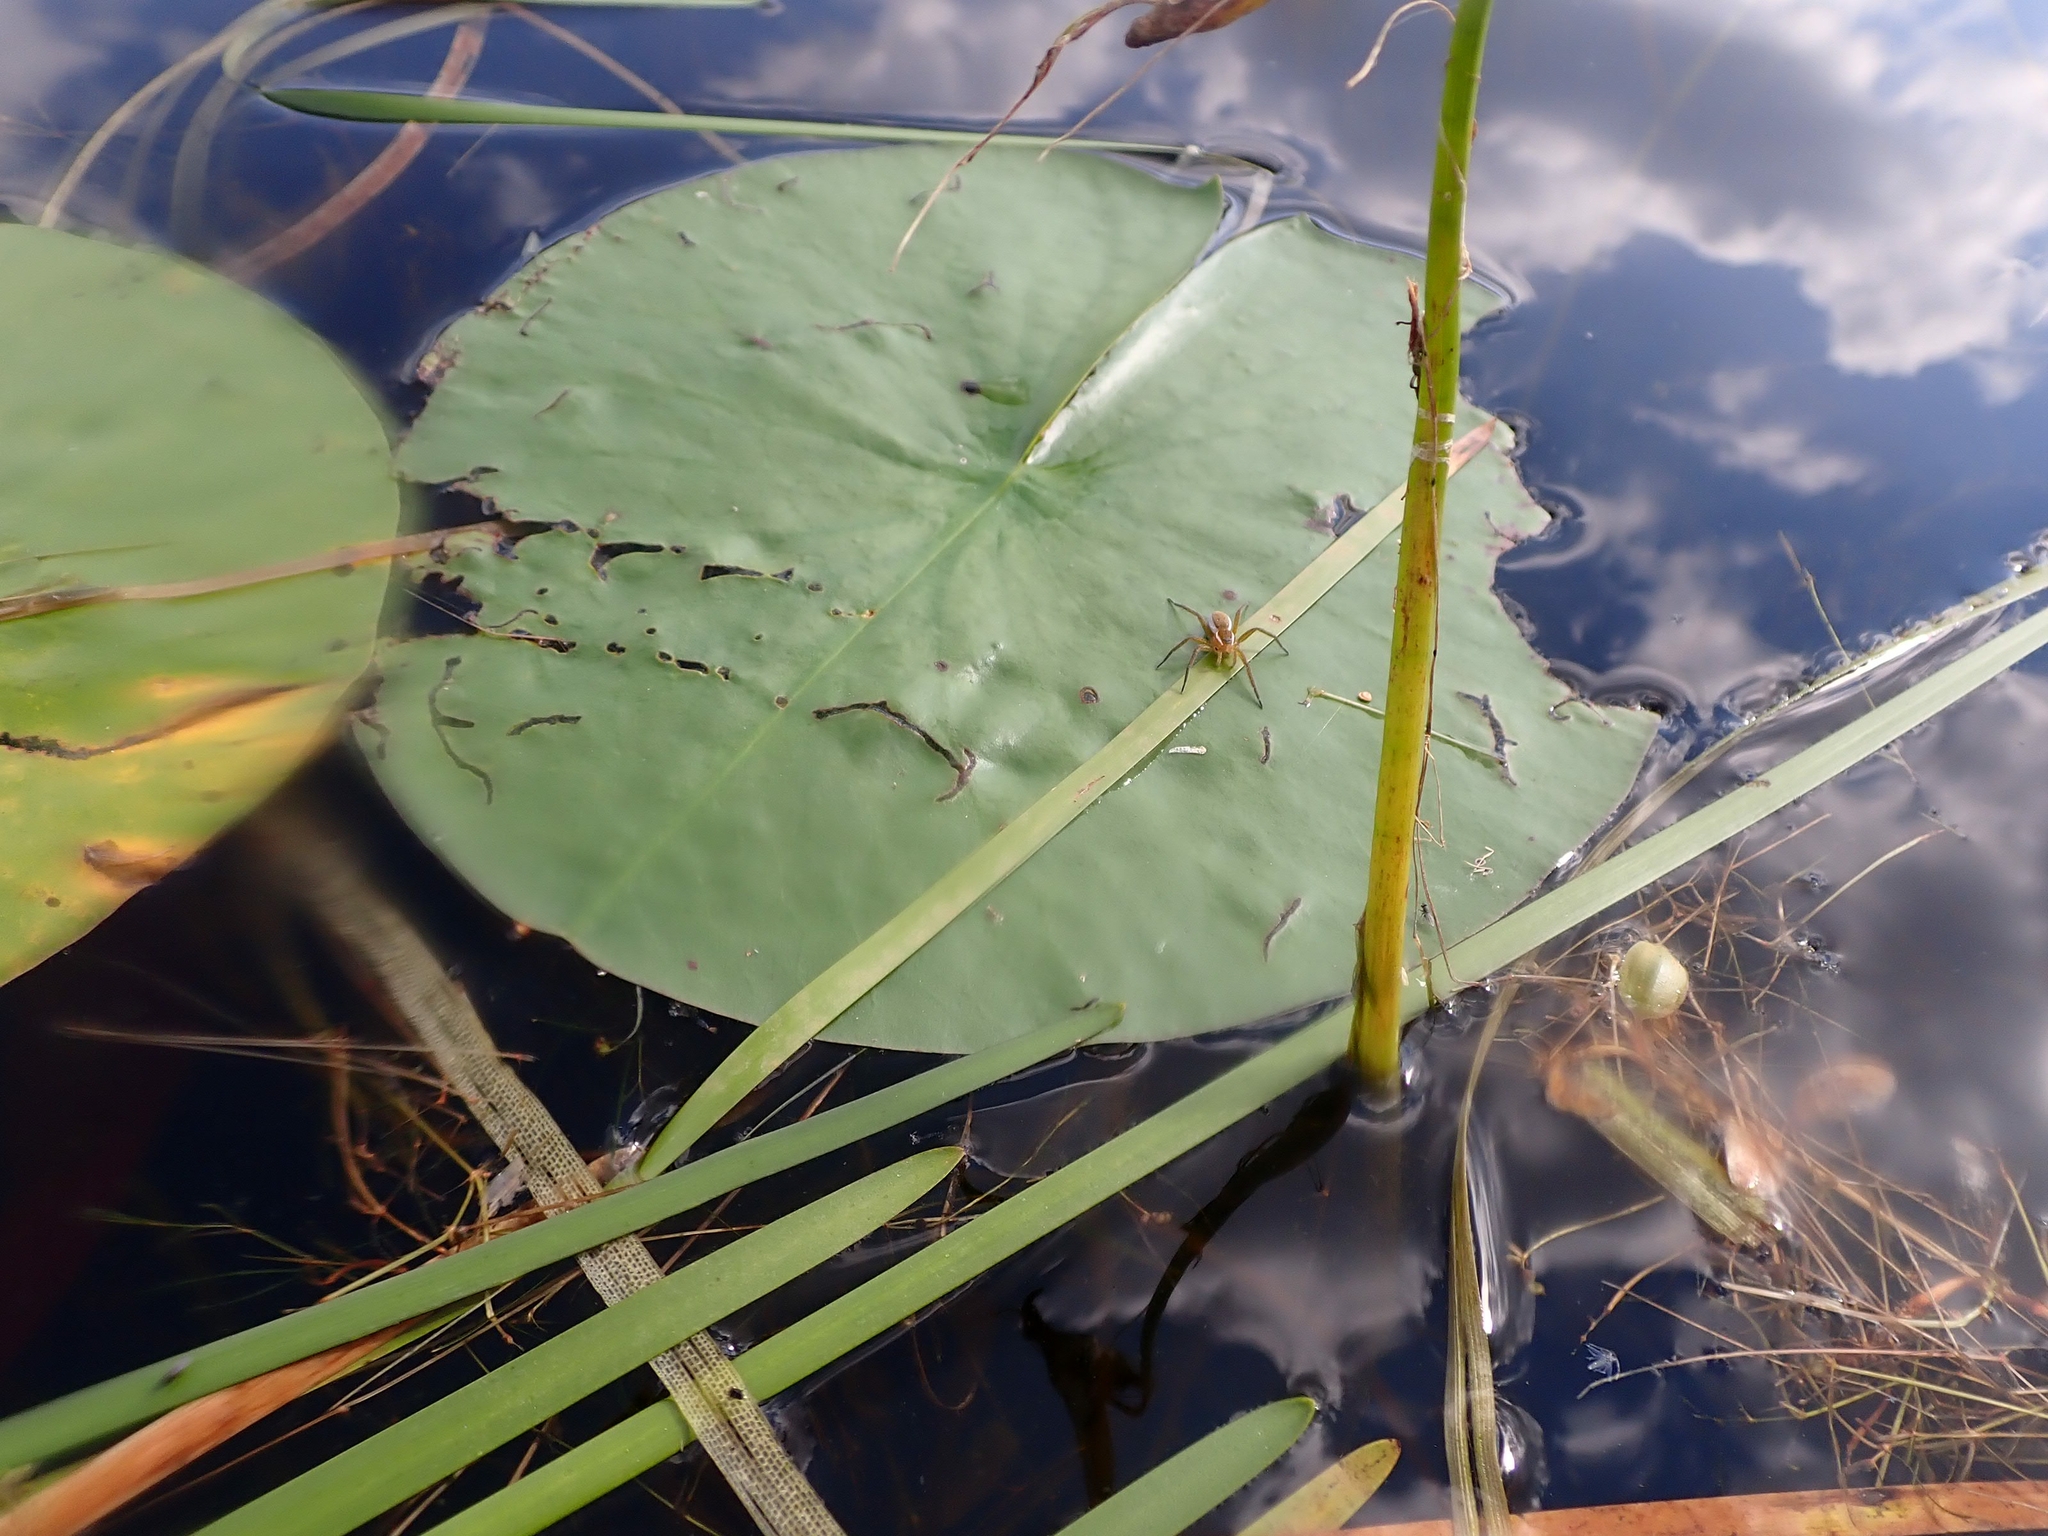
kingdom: Animalia
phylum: Arthropoda
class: Arachnida
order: Araneae
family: Pisauridae
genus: Dolomedes
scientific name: Dolomedes triton
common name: Six-spotted fishing spider
